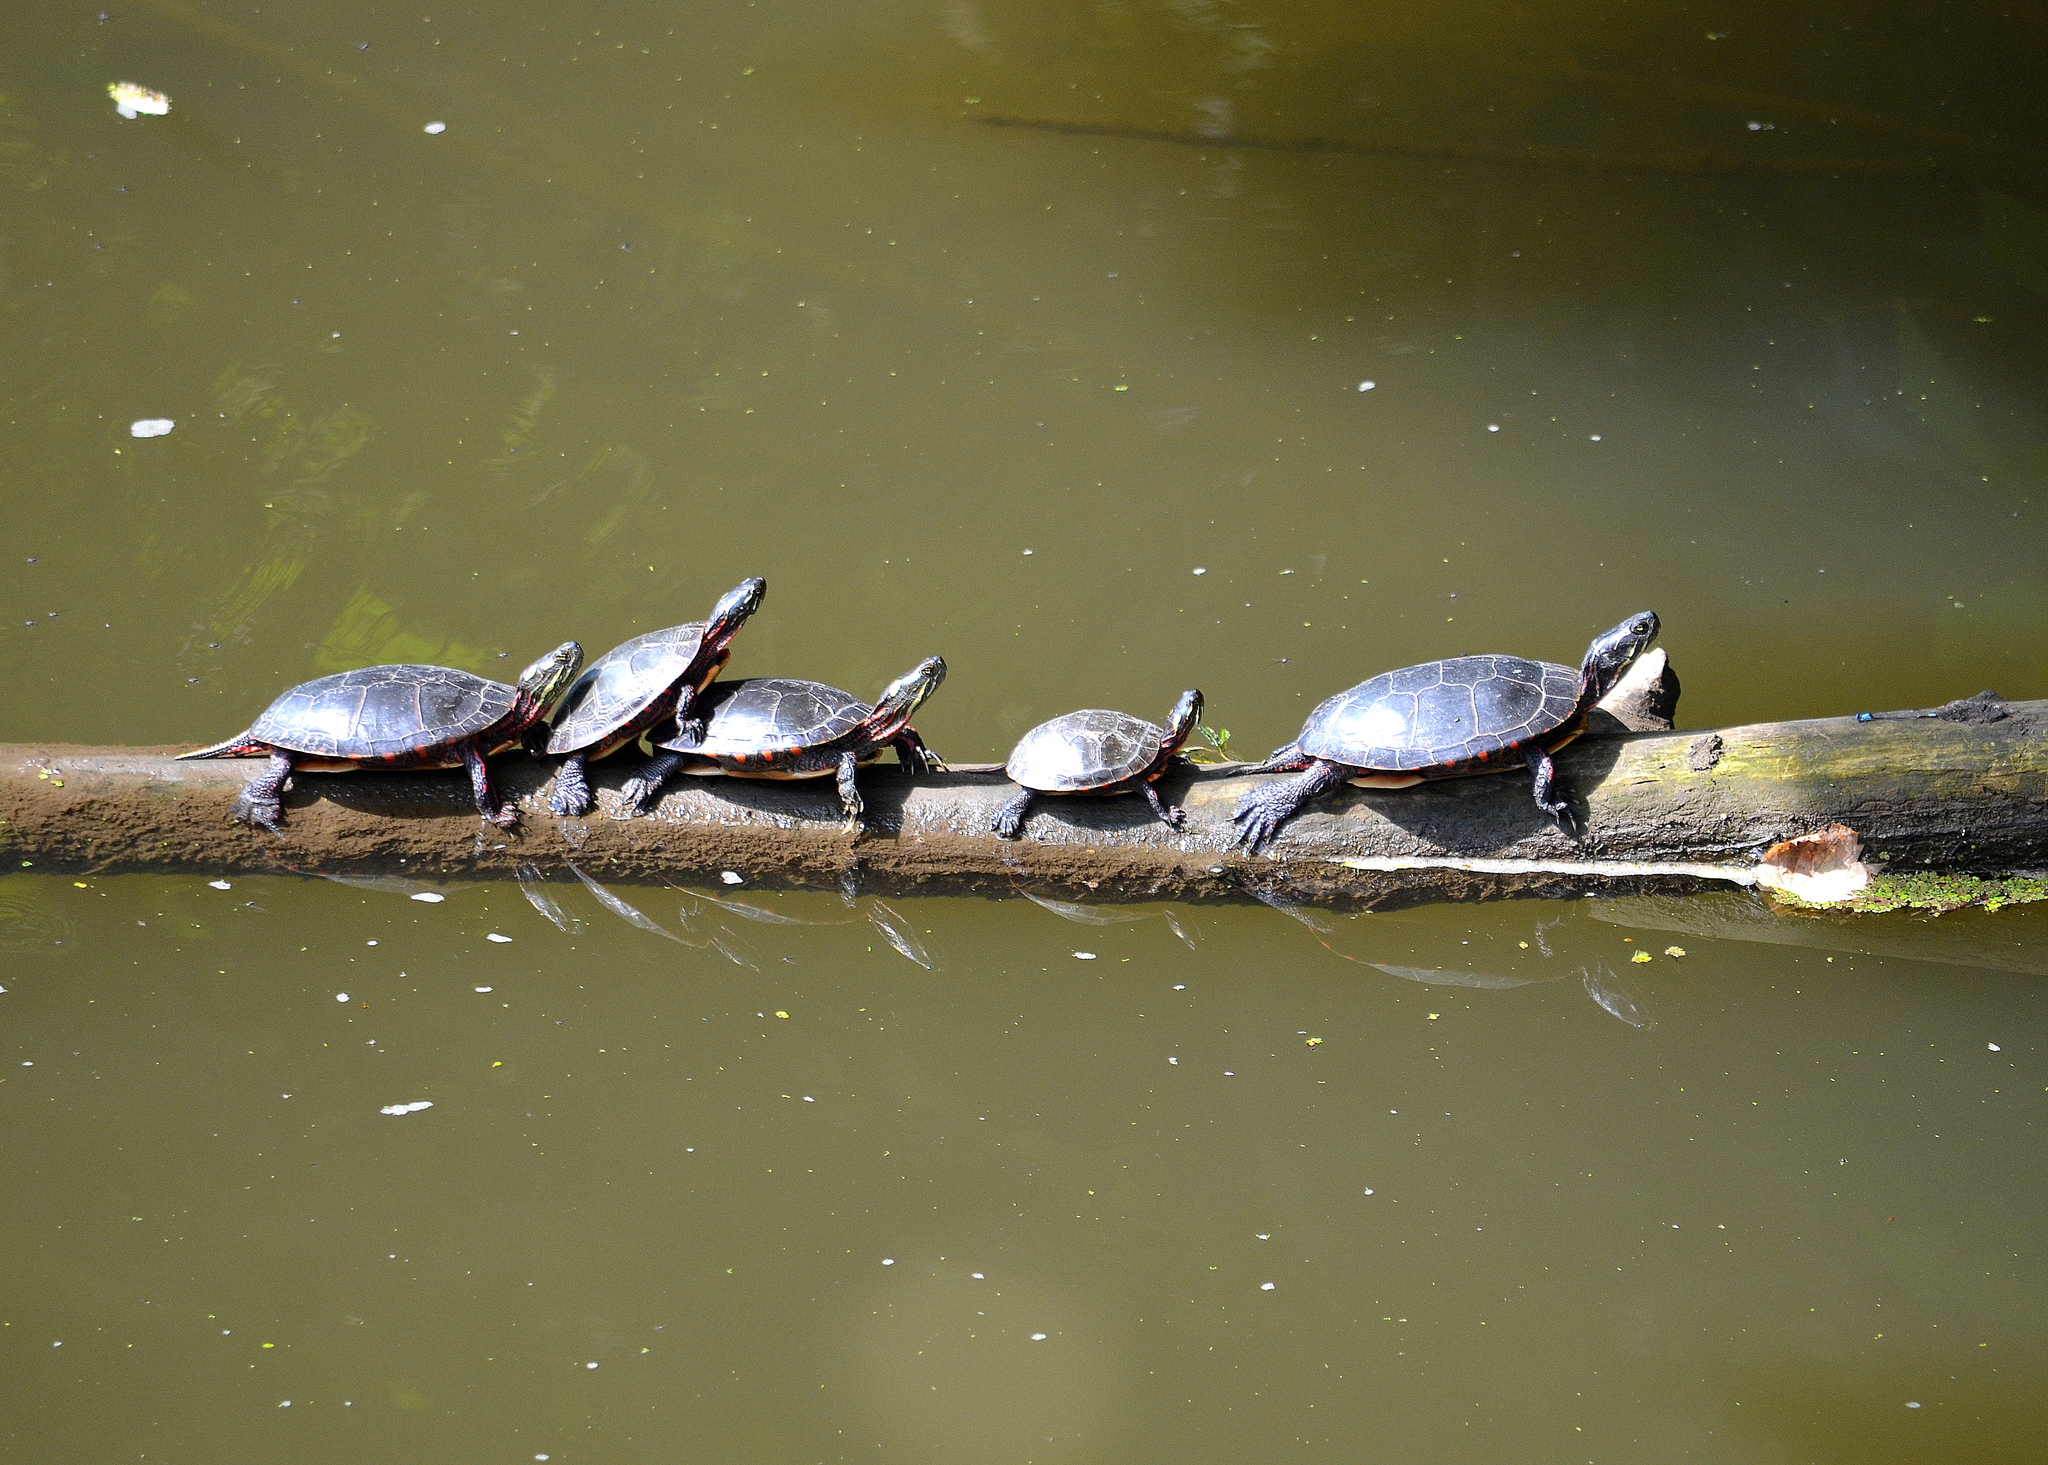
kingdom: Animalia
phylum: Chordata
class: Testudines
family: Emydidae
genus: Chrysemys
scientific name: Chrysemys picta
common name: Painted turtle
